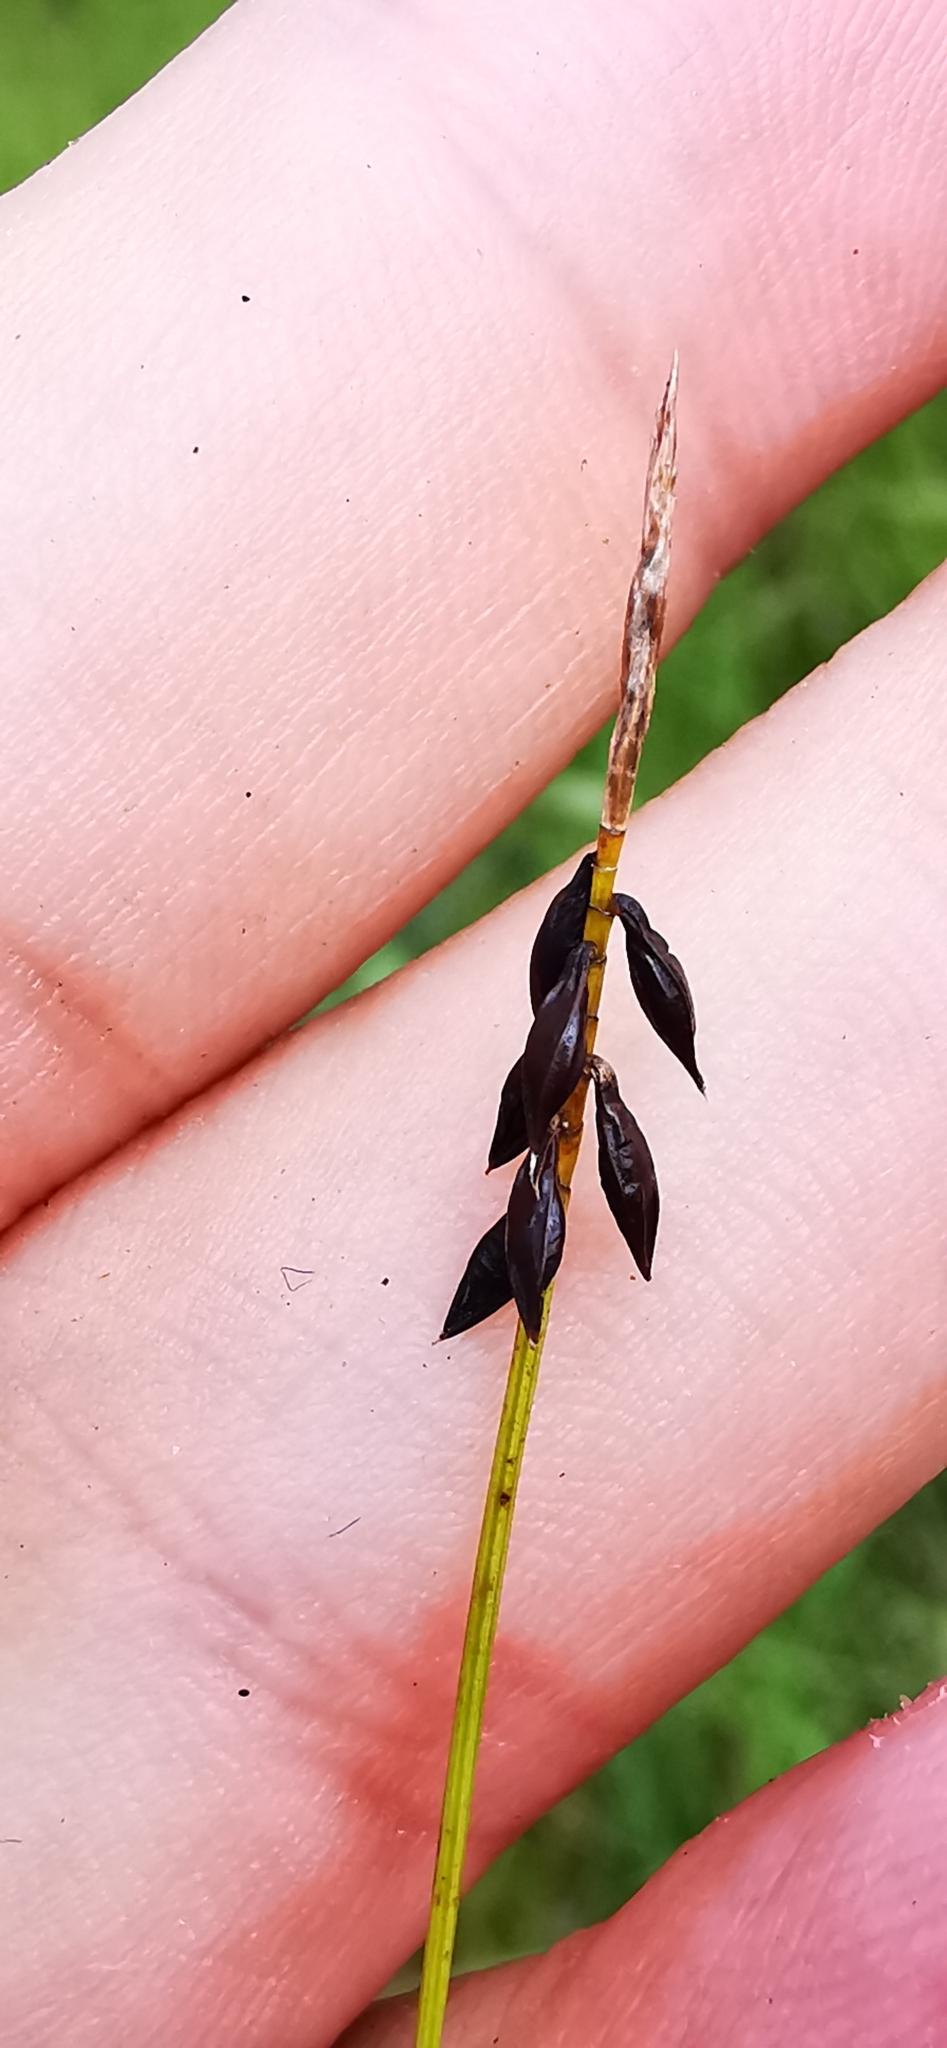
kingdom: Plantae
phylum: Tracheophyta
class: Liliopsida
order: Poales
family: Cyperaceae
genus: Carex
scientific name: Carex pulicaris
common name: Flea sedge
